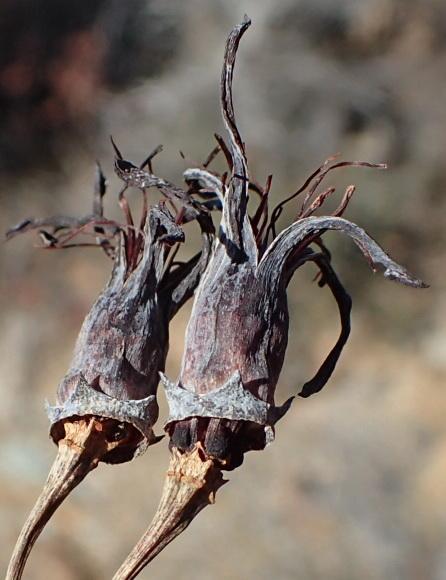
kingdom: Plantae
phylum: Tracheophyta
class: Magnoliopsida
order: Saxifragales
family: Crassulaceae
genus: Cotyledon
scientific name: Cotyledon orbiculata
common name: Pig's ear
